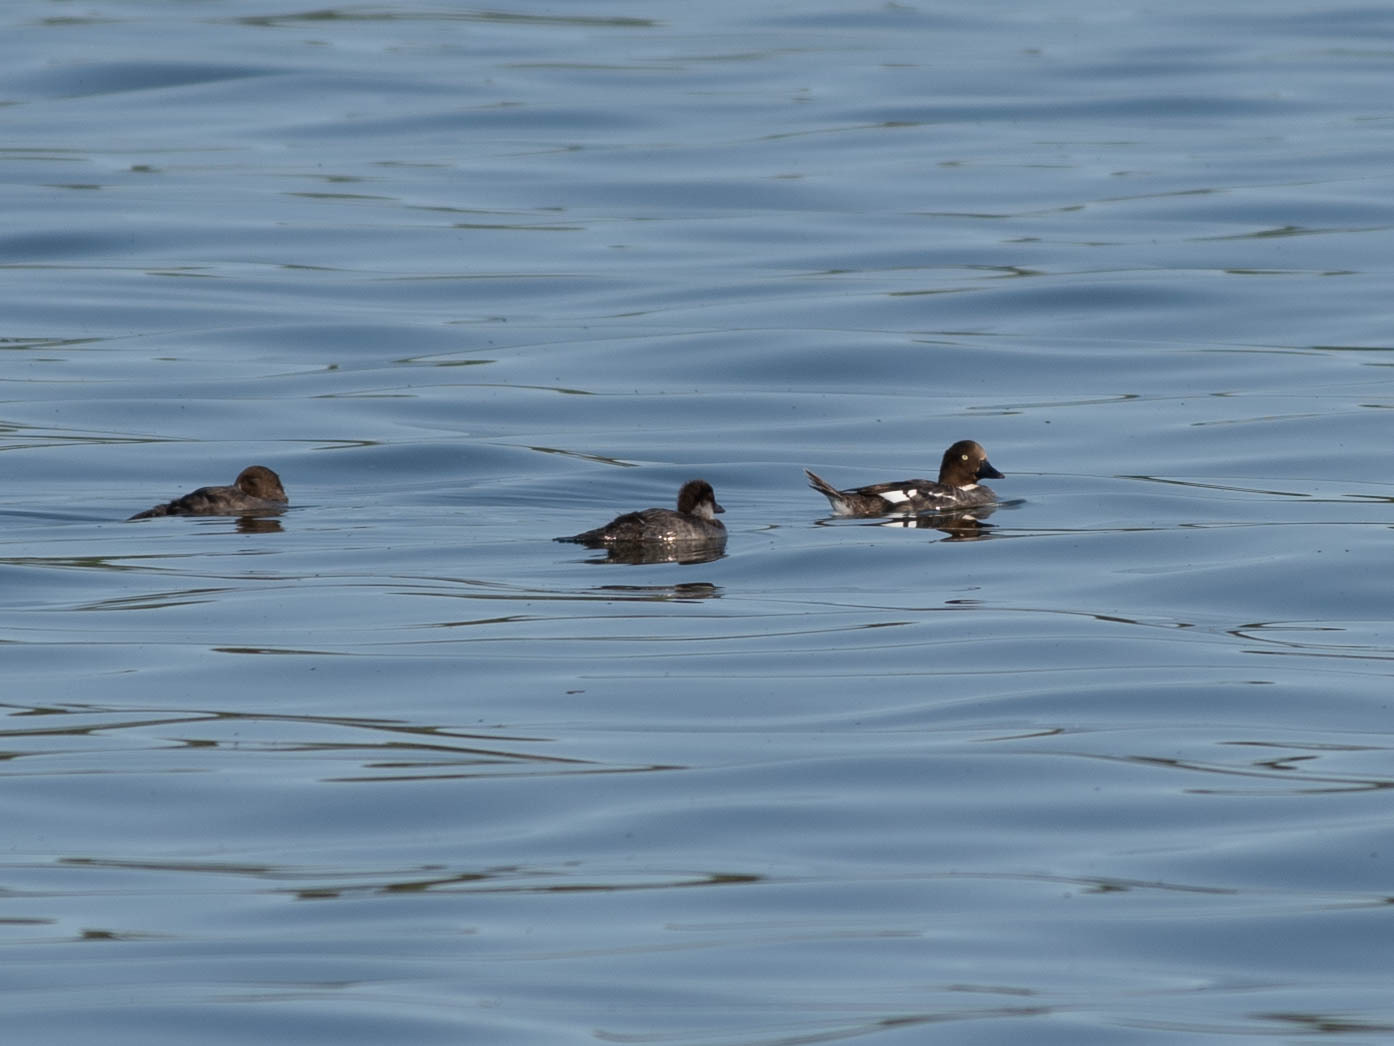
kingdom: Animalia
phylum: Chordata
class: Aves
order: Anseriformes
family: Anatidae
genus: Bucephala
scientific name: Bucephala clangula
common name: Common goldeneye
